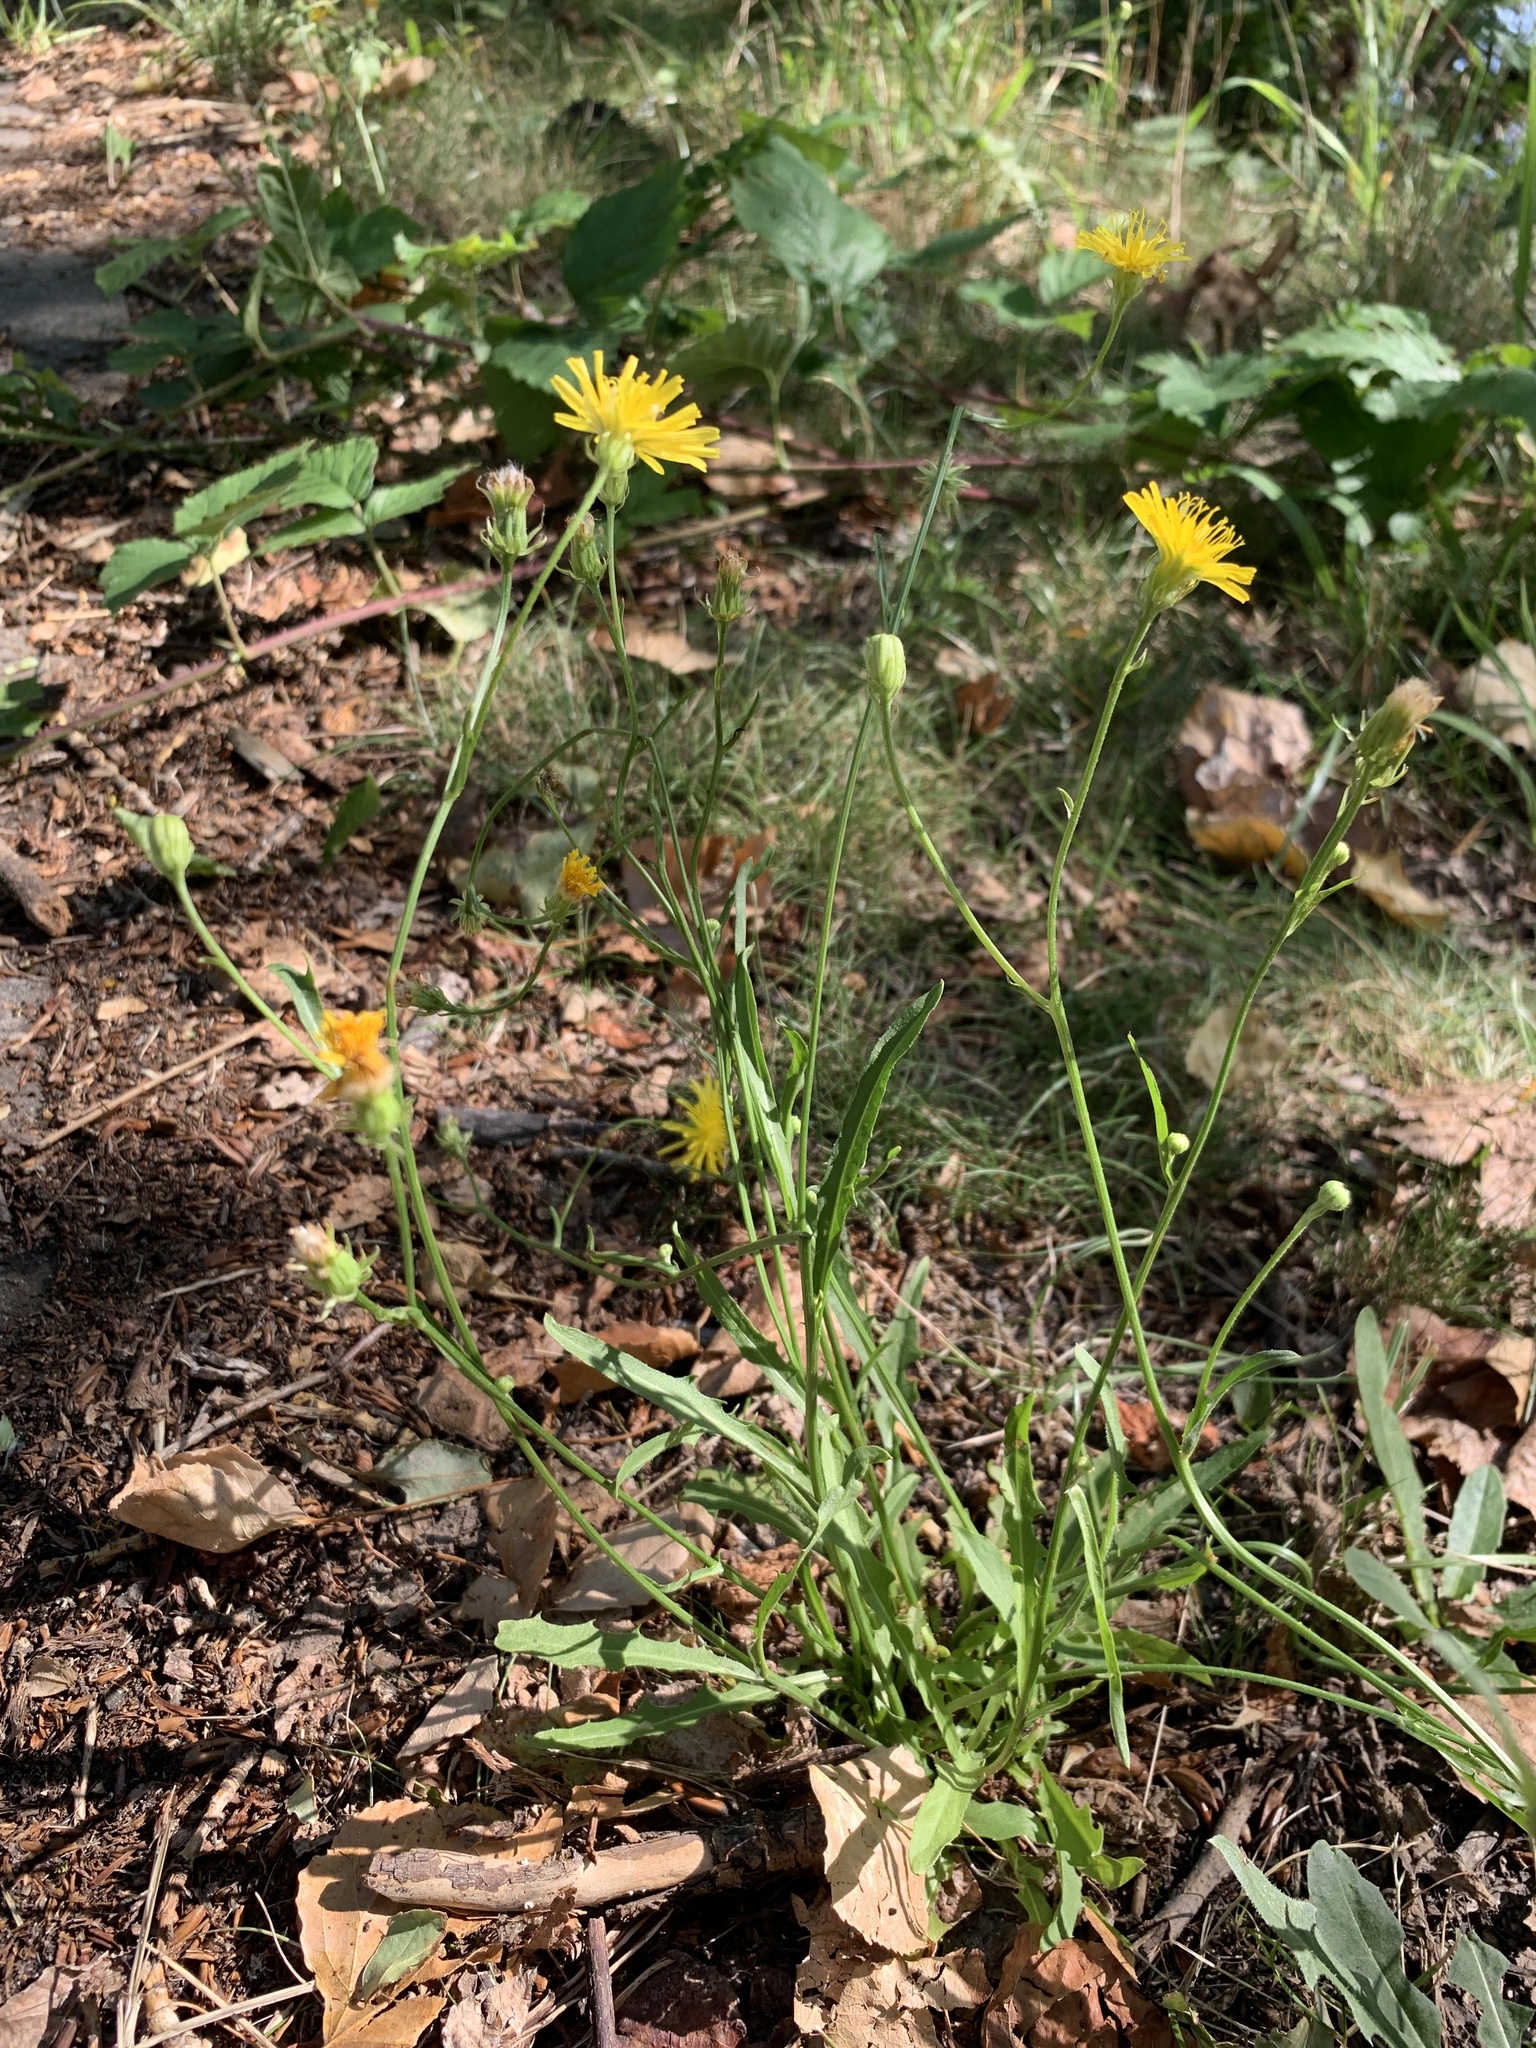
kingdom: Plantae
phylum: Tracheophyta
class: Magnoliopsida
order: Asterales
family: Asteraceae
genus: Crepis
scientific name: Crepis biennis
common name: Rough hawk's-beard
